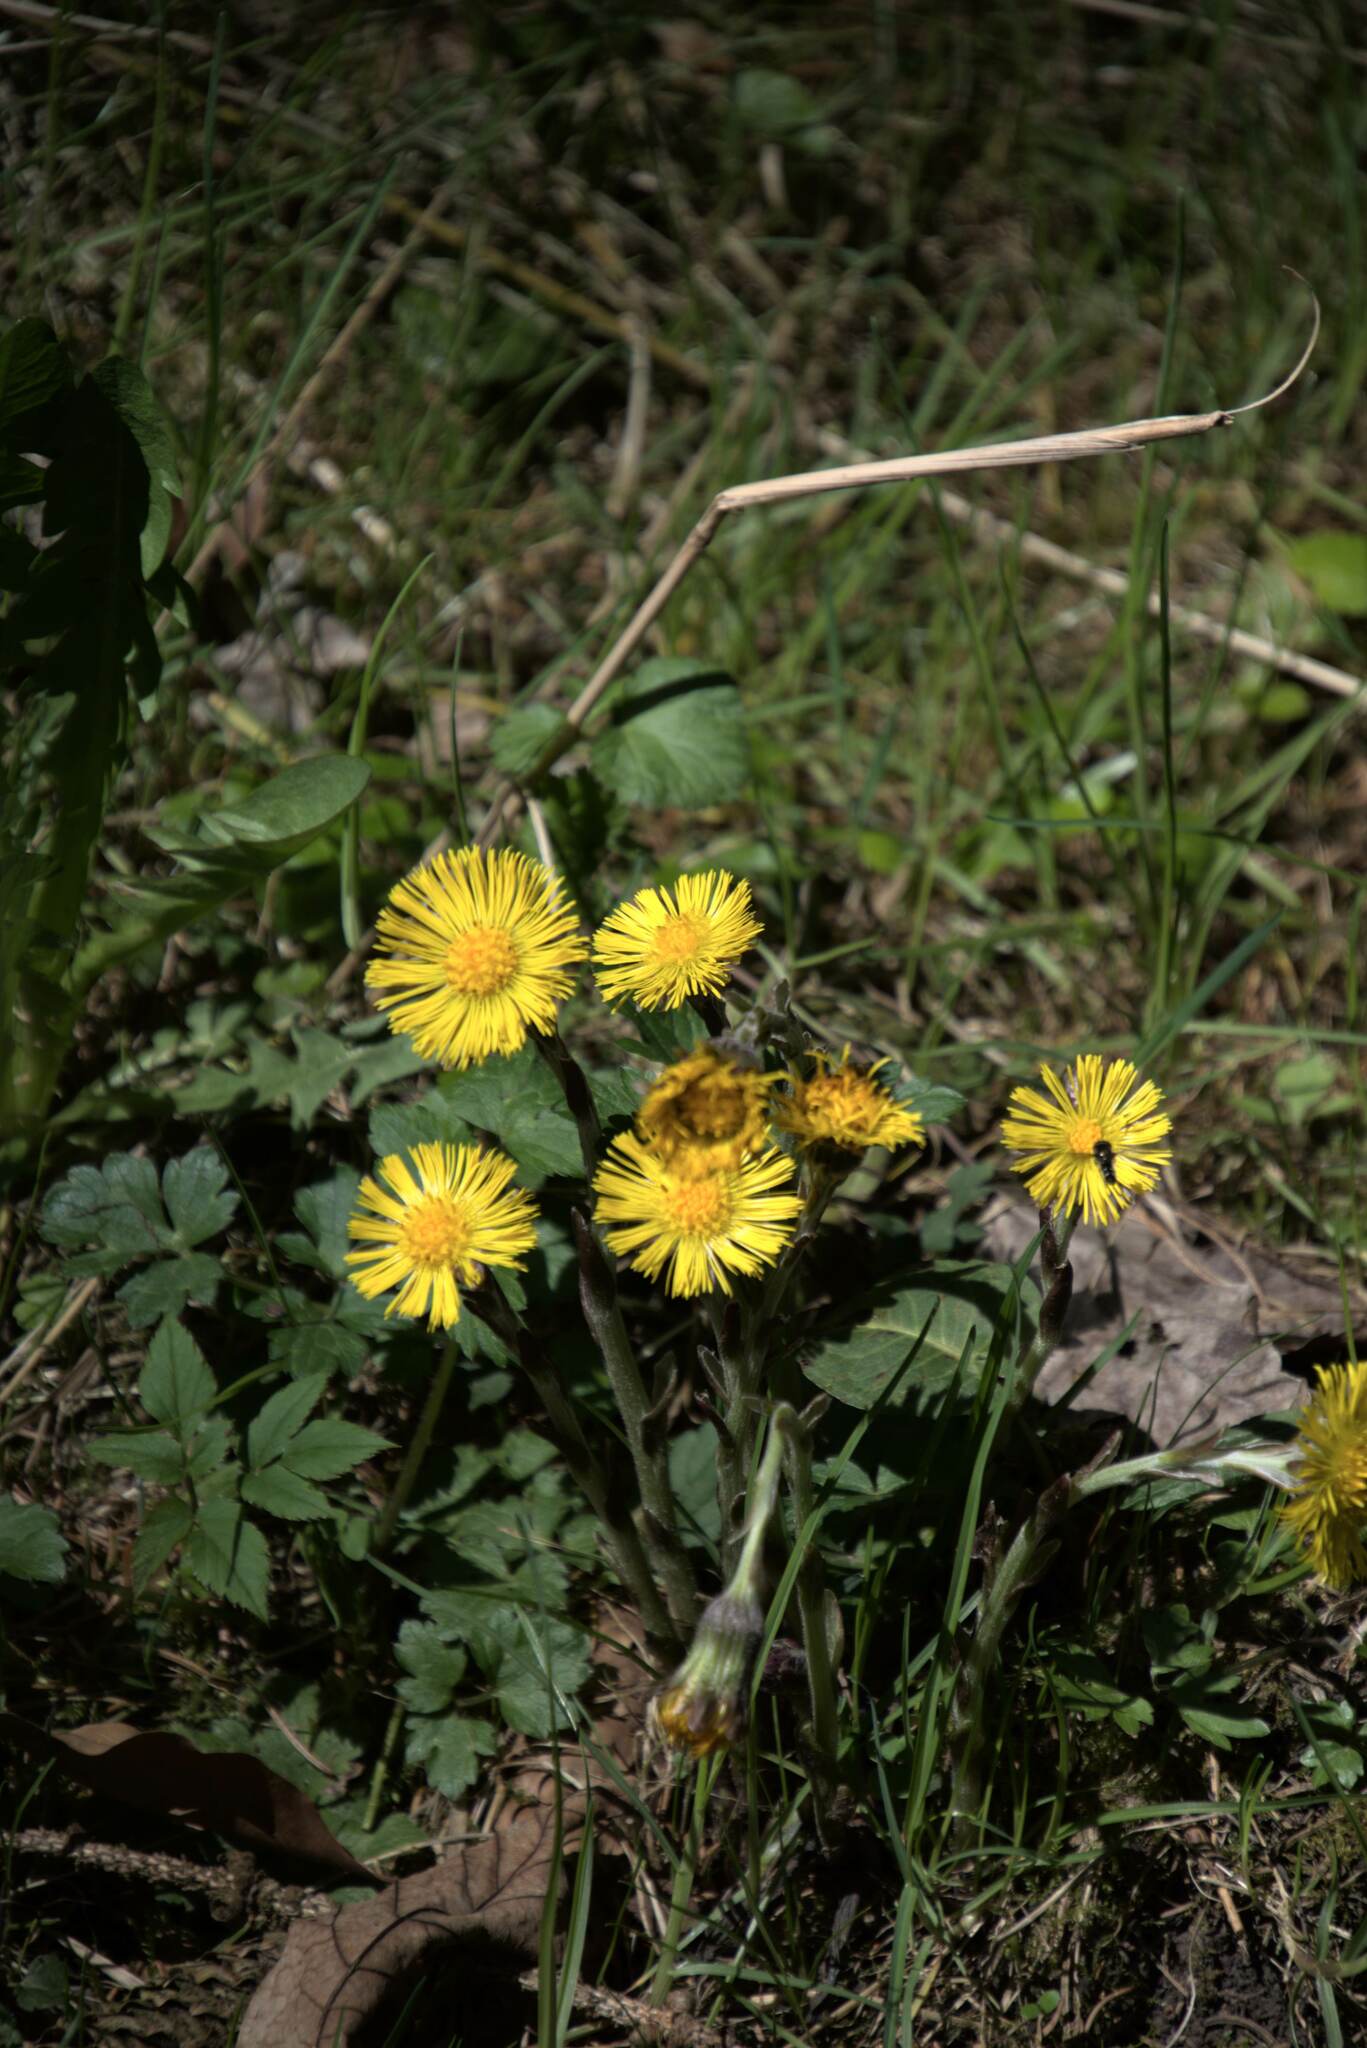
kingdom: Plantae
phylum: Tracheophyta
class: Magnoliopsida
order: Asterales
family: Asteraceae
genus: Tussilago
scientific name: Tussilago farfara
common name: Coltsfoot
